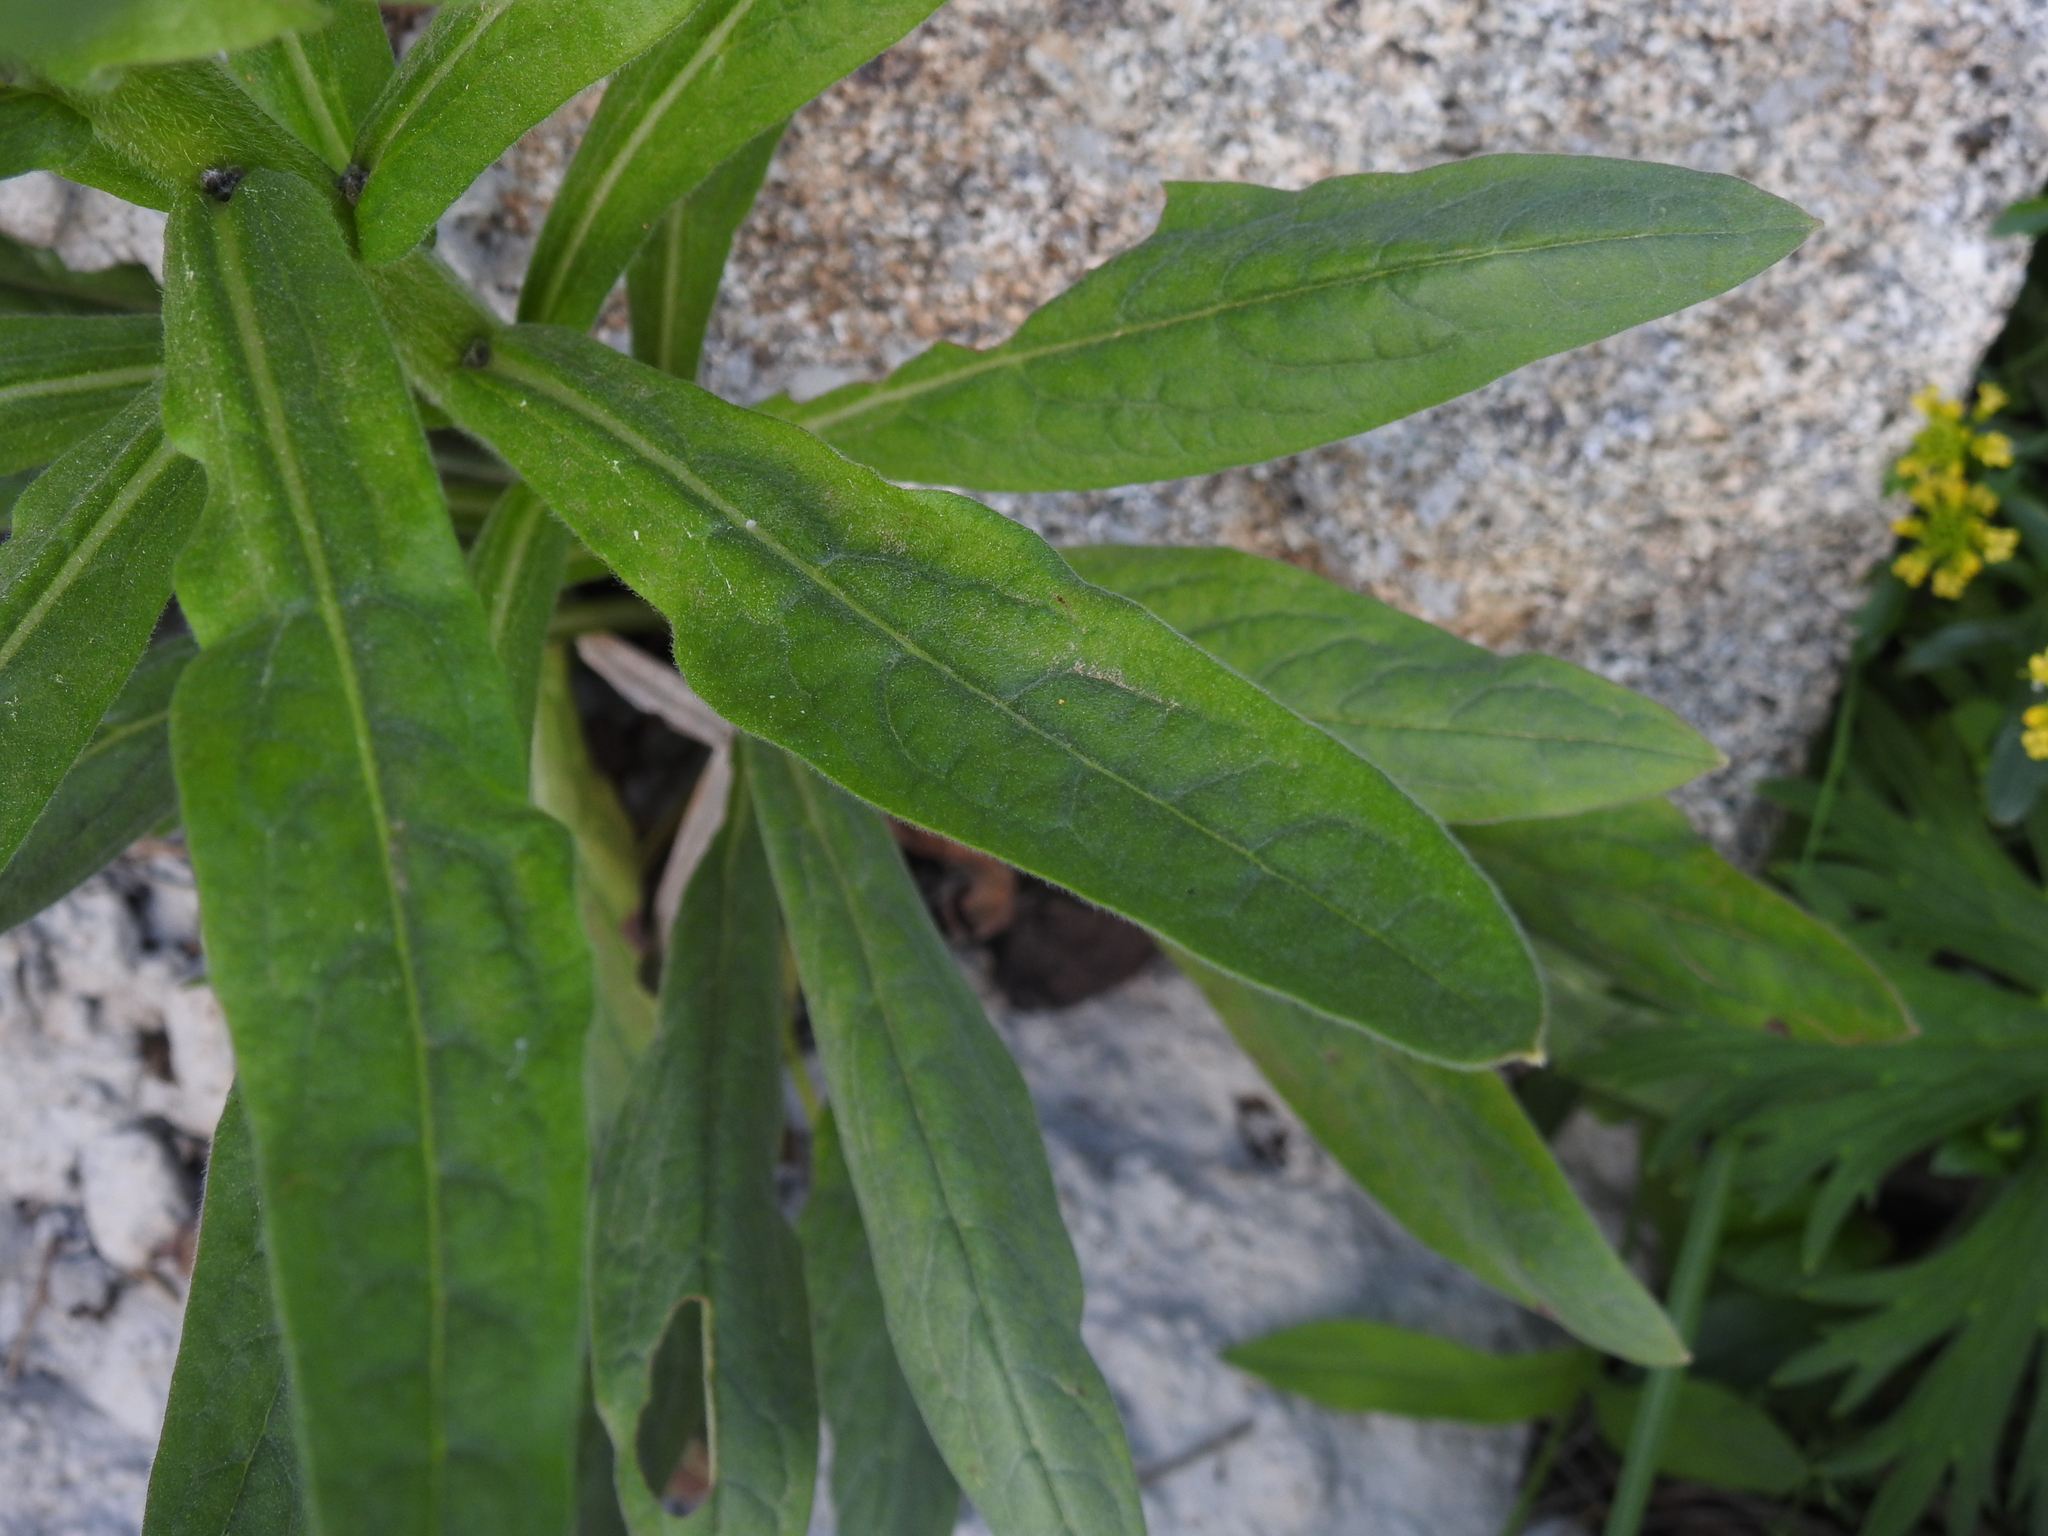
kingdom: Plantae
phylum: Tracheophyta
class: Magnoliopsida
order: Boraginales
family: Boraginaceae
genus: Cynoglossum
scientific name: Cynoglossum officinale
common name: Hound's-tongue
